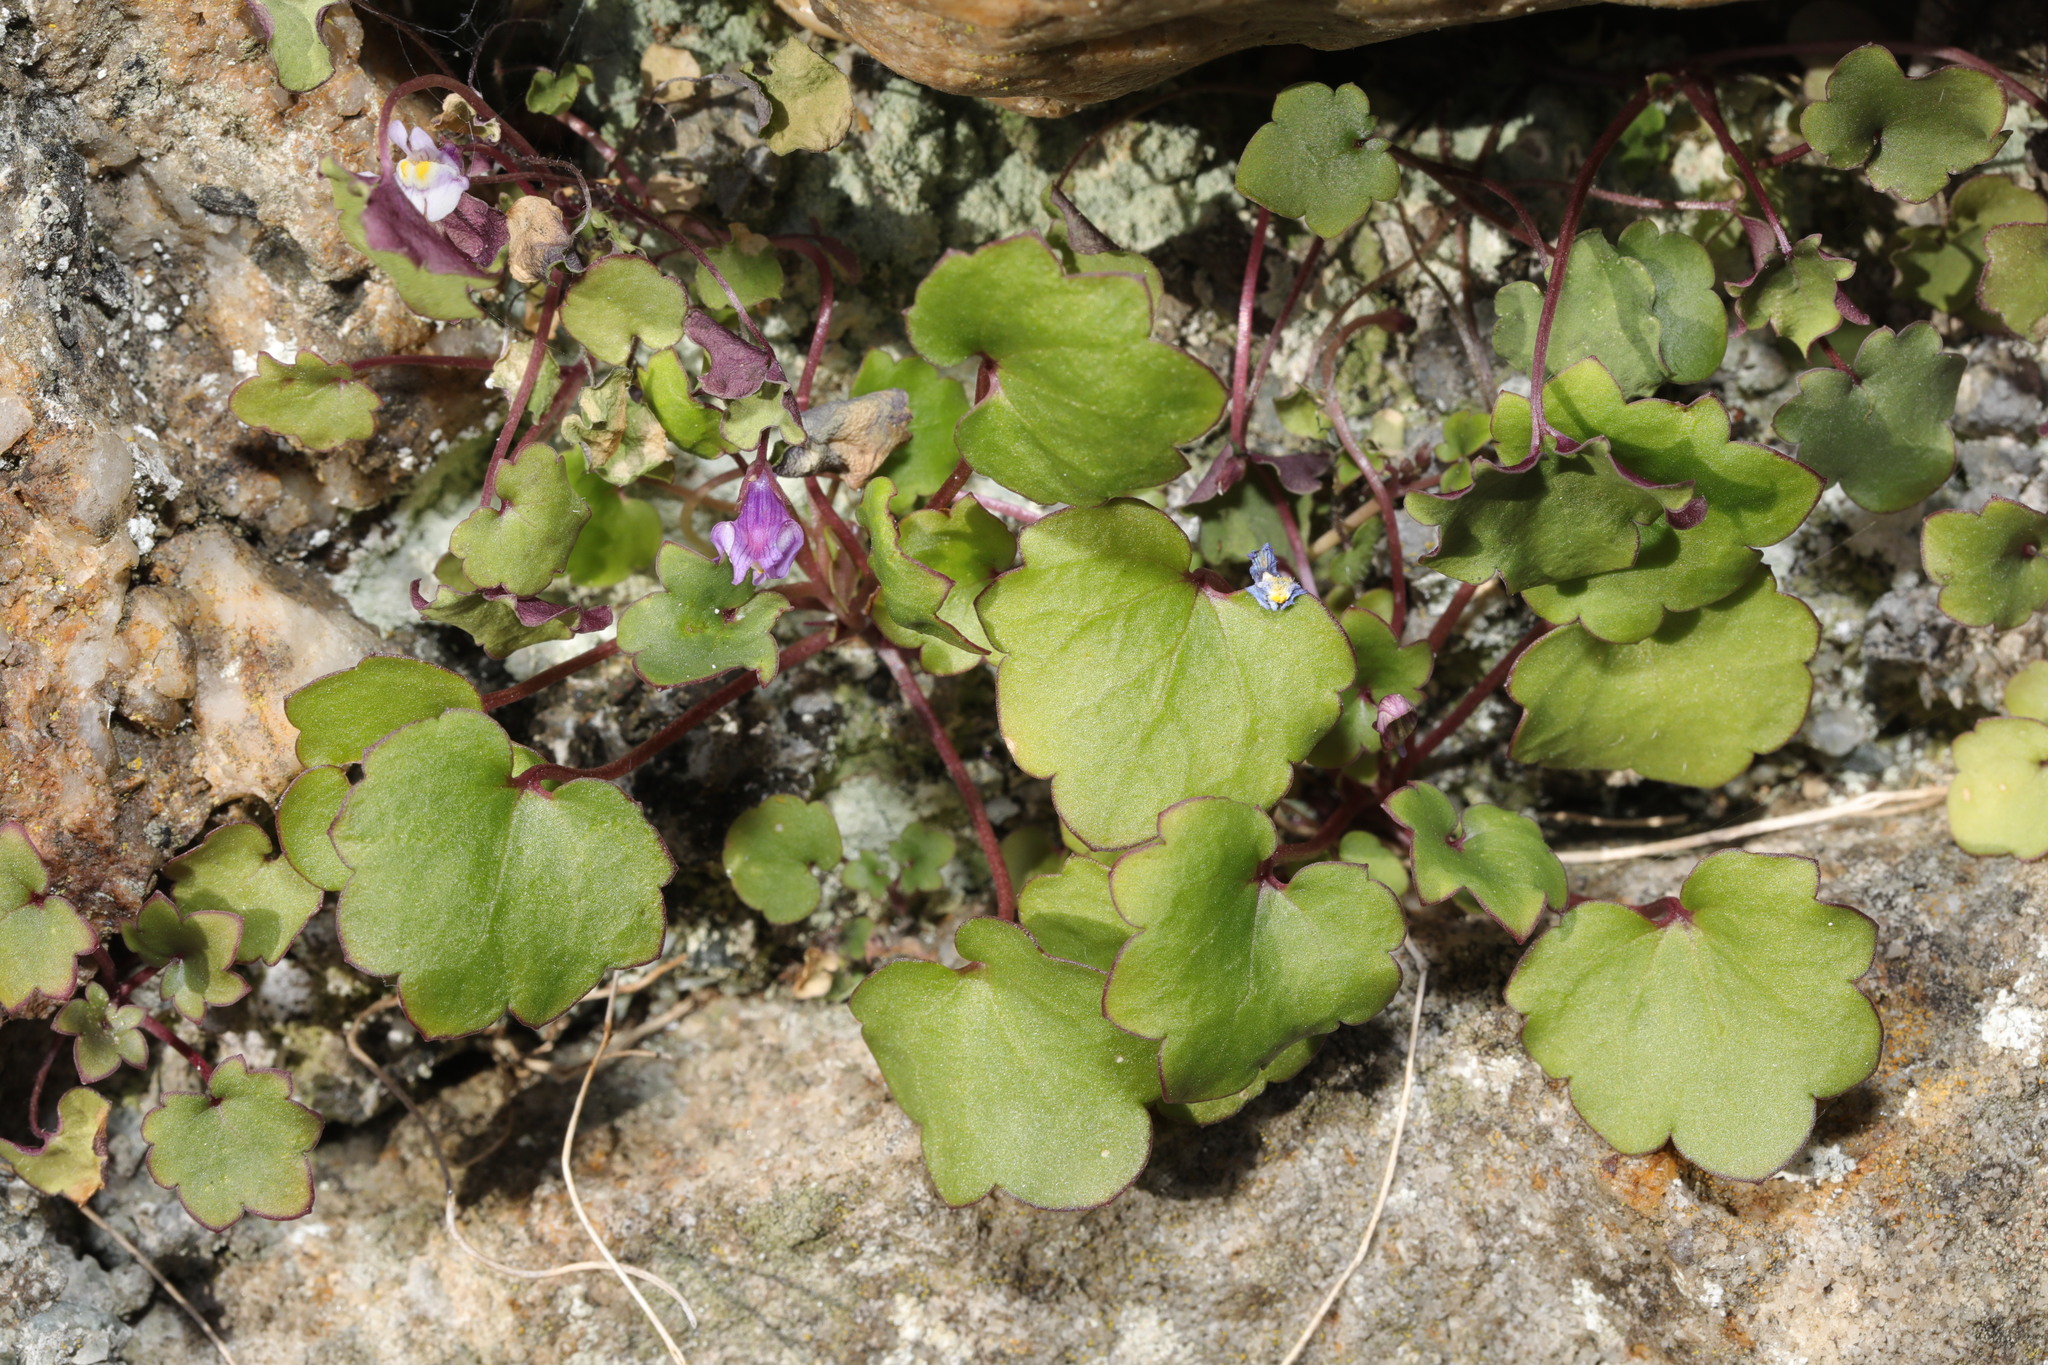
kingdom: Plantae
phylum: Tracheophyta
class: Magnoliopsida
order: Lamiales
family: Plantaginaceae
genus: Cymbalaria
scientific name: Cymbalaria muralis
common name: Ivy-leaved toadflax
